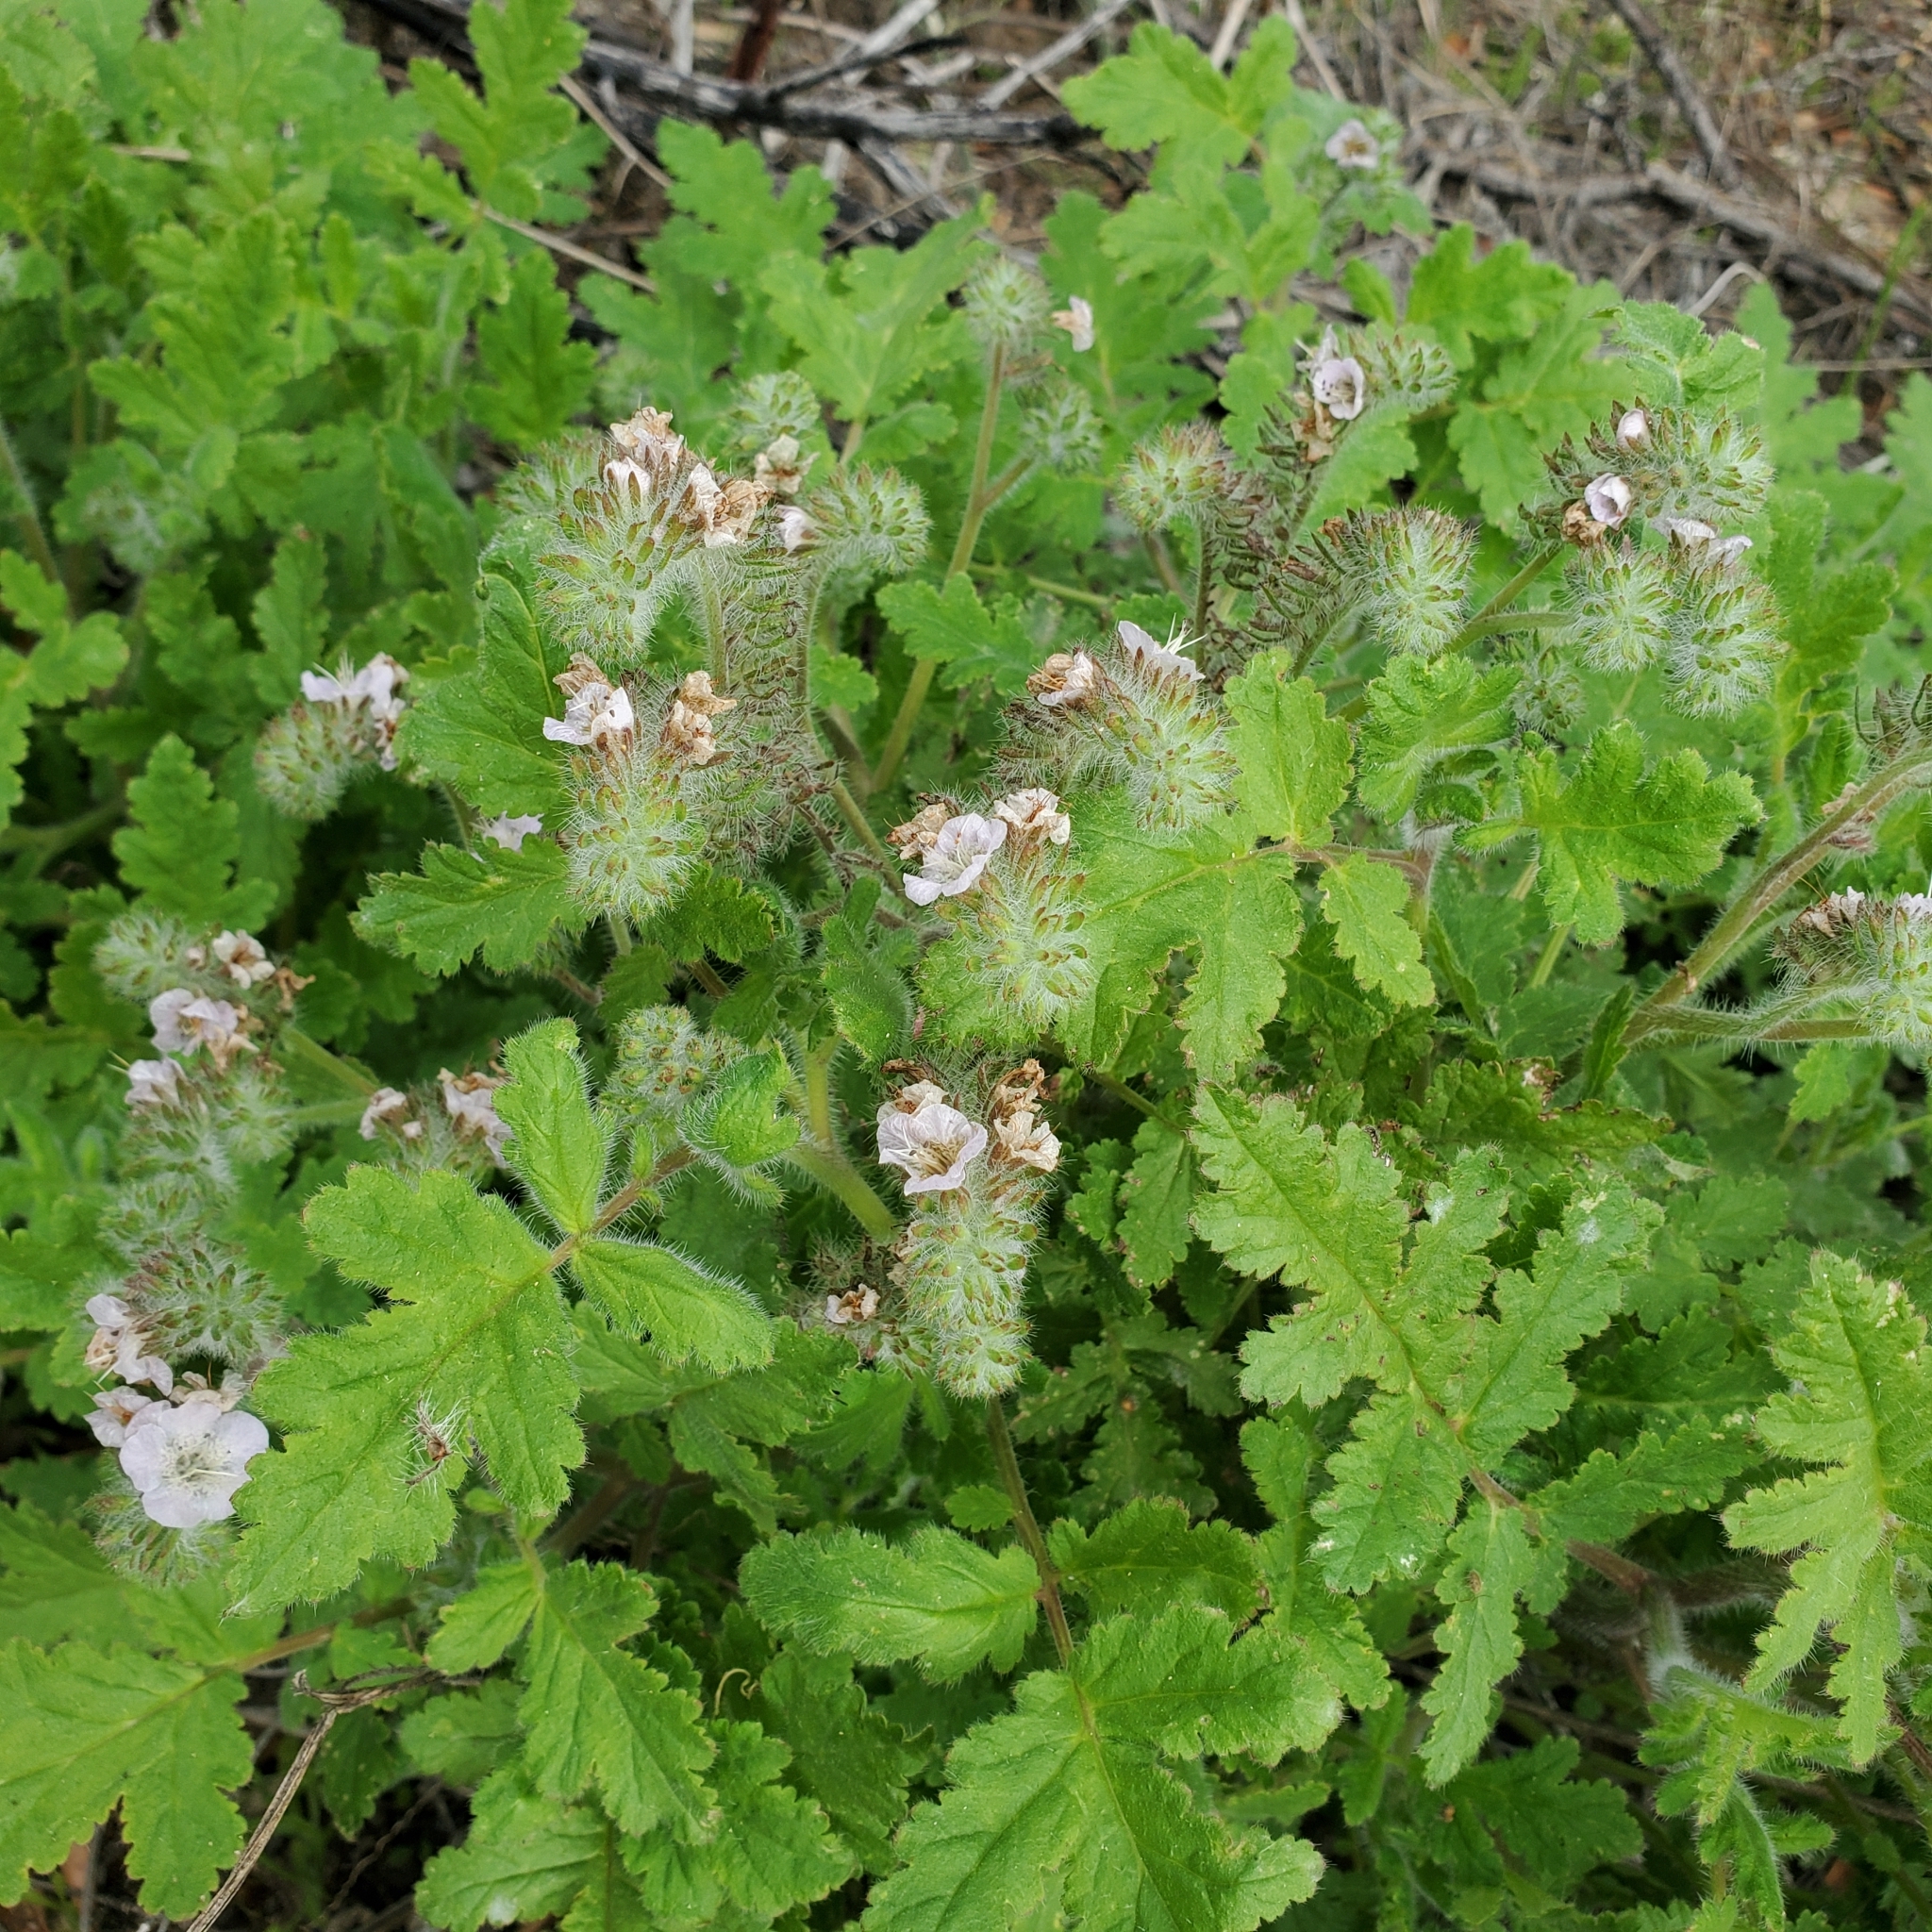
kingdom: Plantae
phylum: Tracheophyta
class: Magnoliopsida
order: Boraginales
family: Hydrophyllaceae
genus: Phacelia
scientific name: Phacelia cicutaria
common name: Caterpillar phacelia
